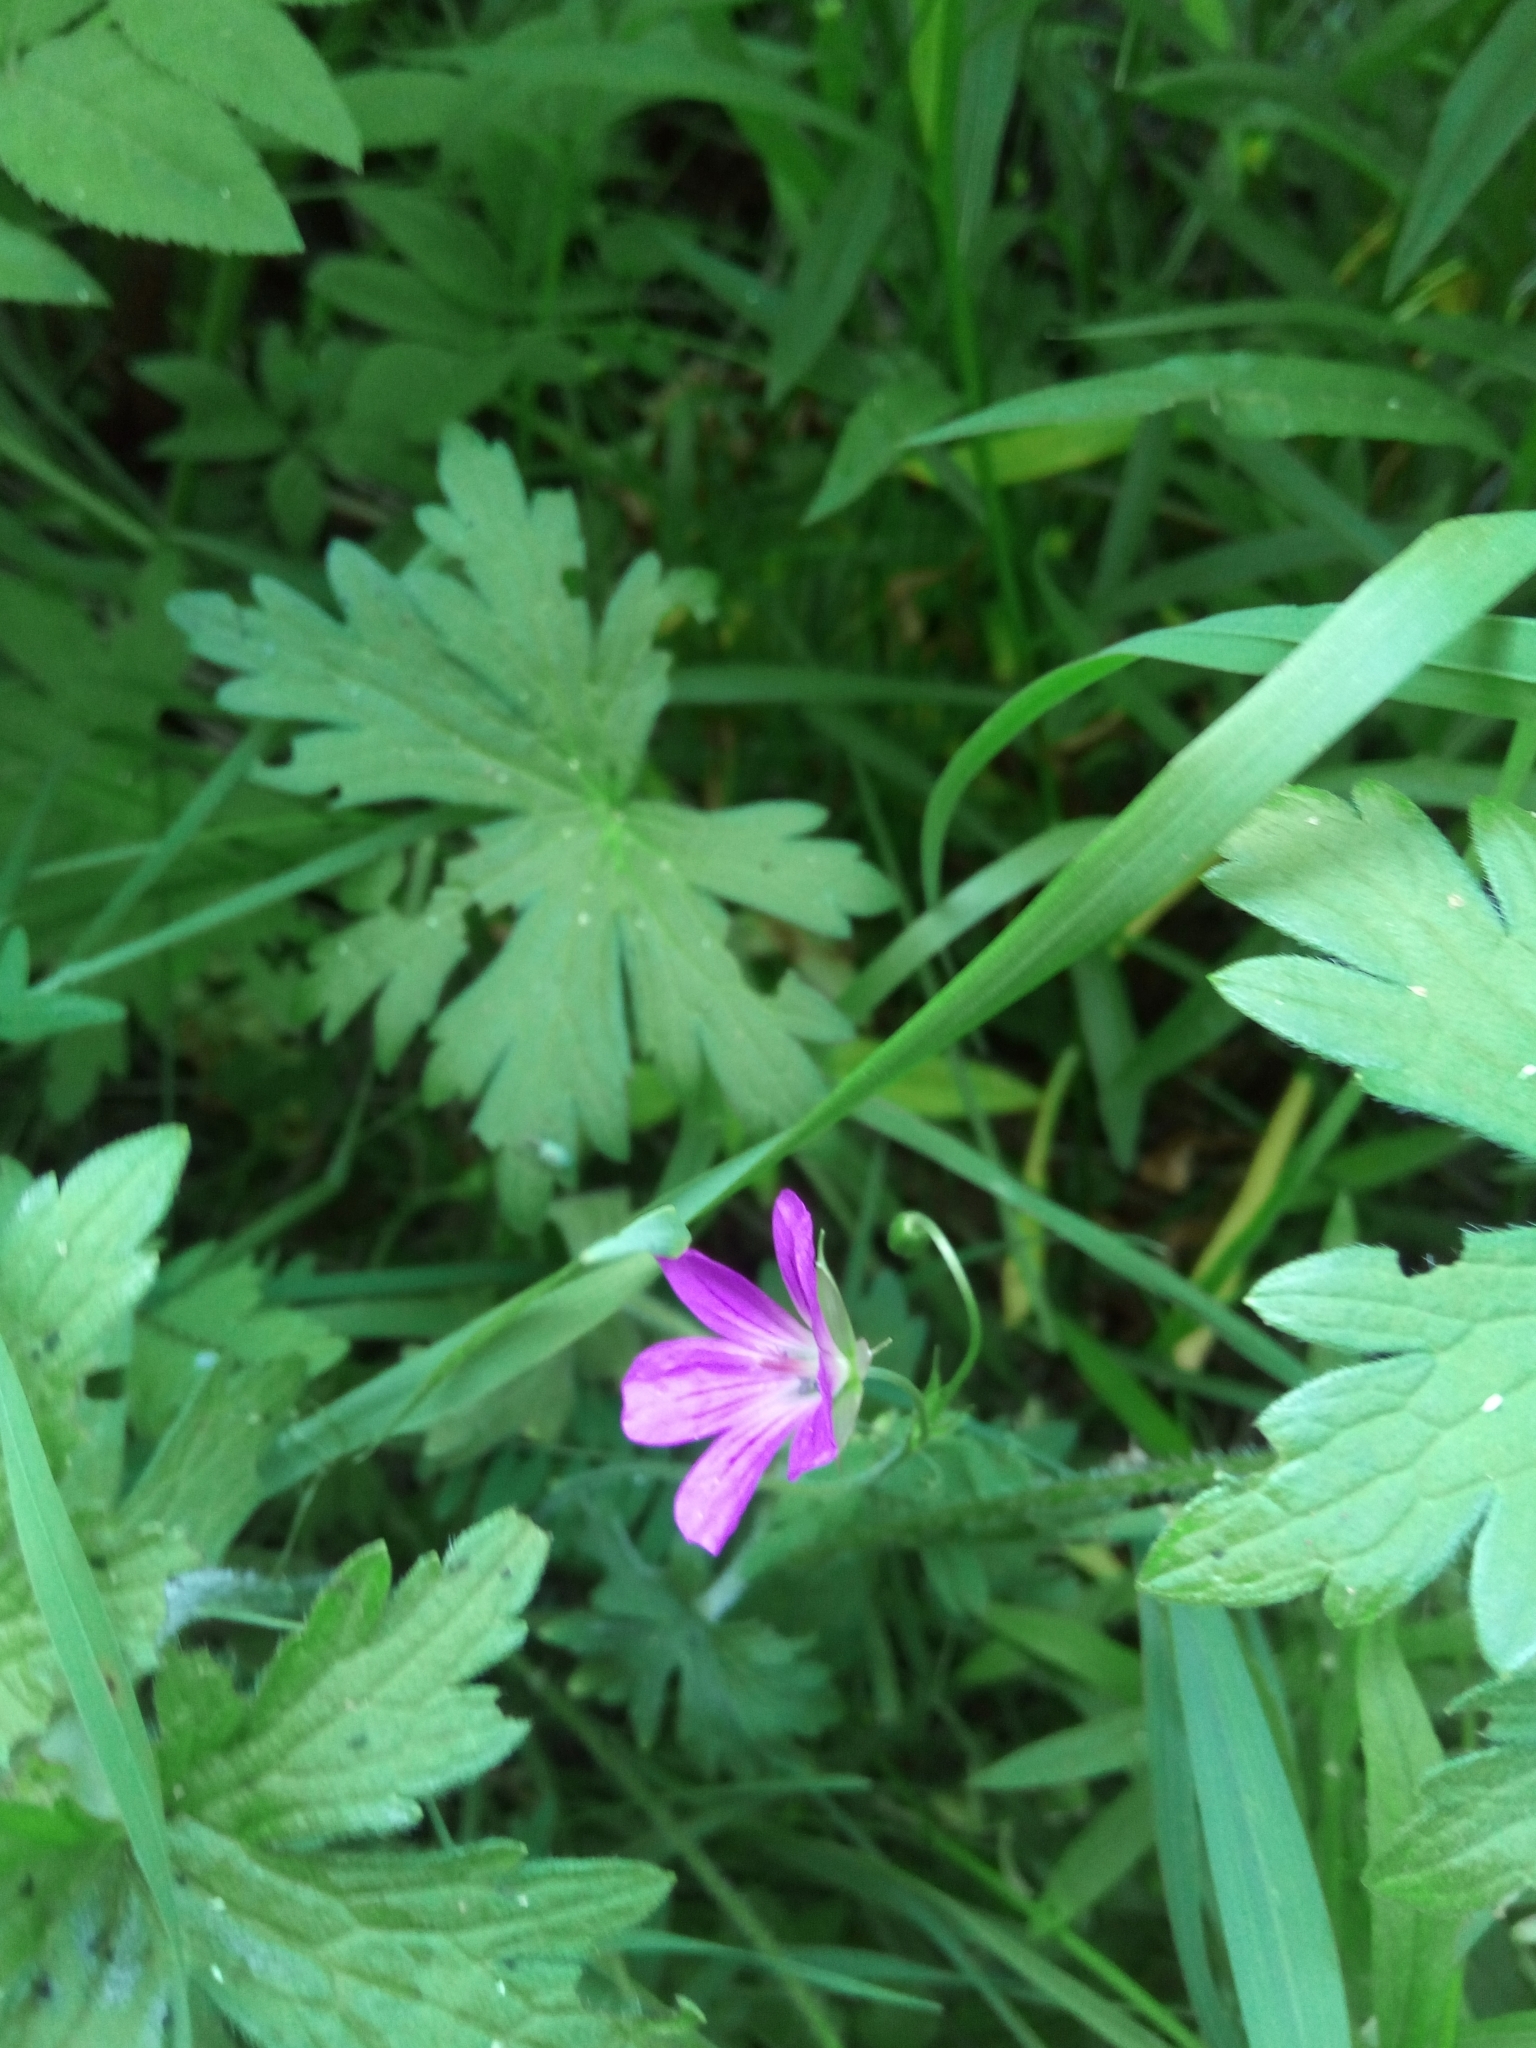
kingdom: Plantae
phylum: Tracheophyta
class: Magnoliopsida
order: Geraniales
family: Geraniaceae
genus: Geranium
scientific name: Geranium palustre
